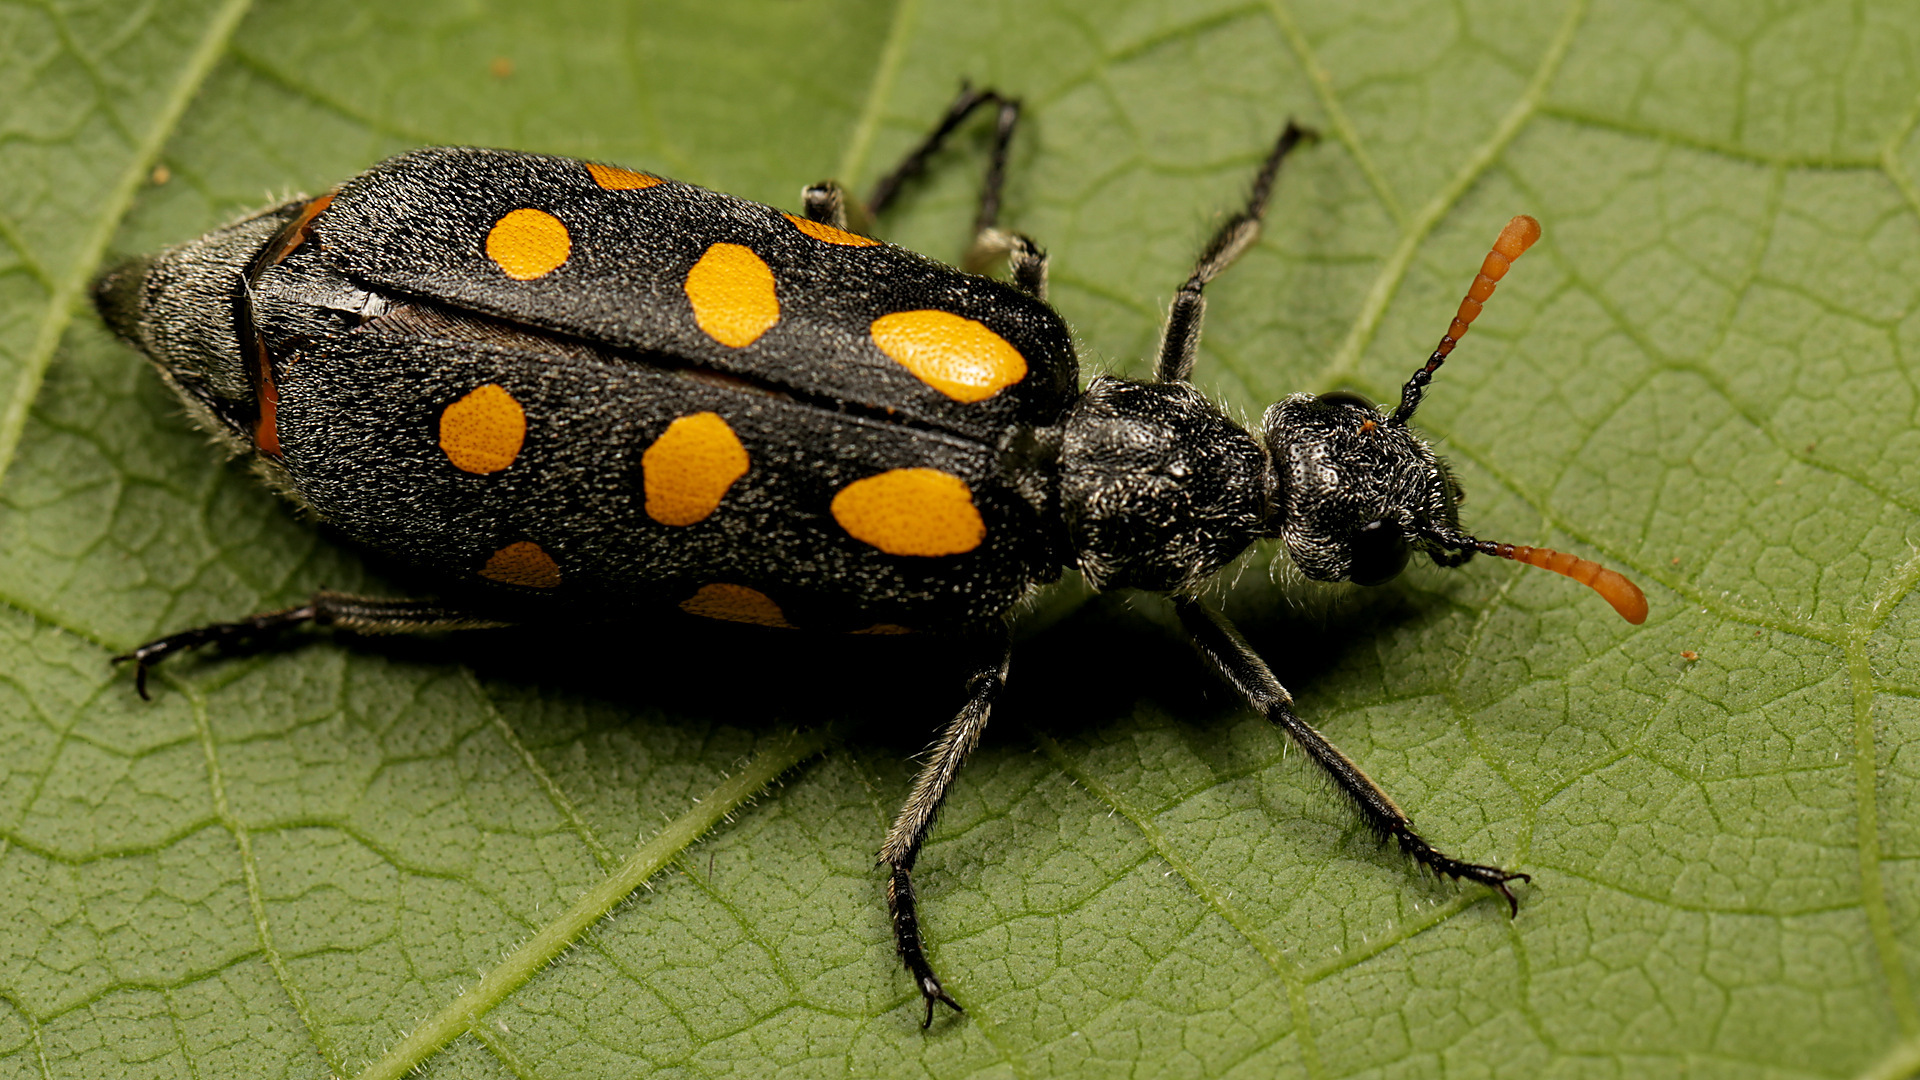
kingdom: Animalia
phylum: Arthropoda
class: Insecta
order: Coleoptera
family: Meloidae
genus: Hycleus
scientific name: Hycleus lugens
